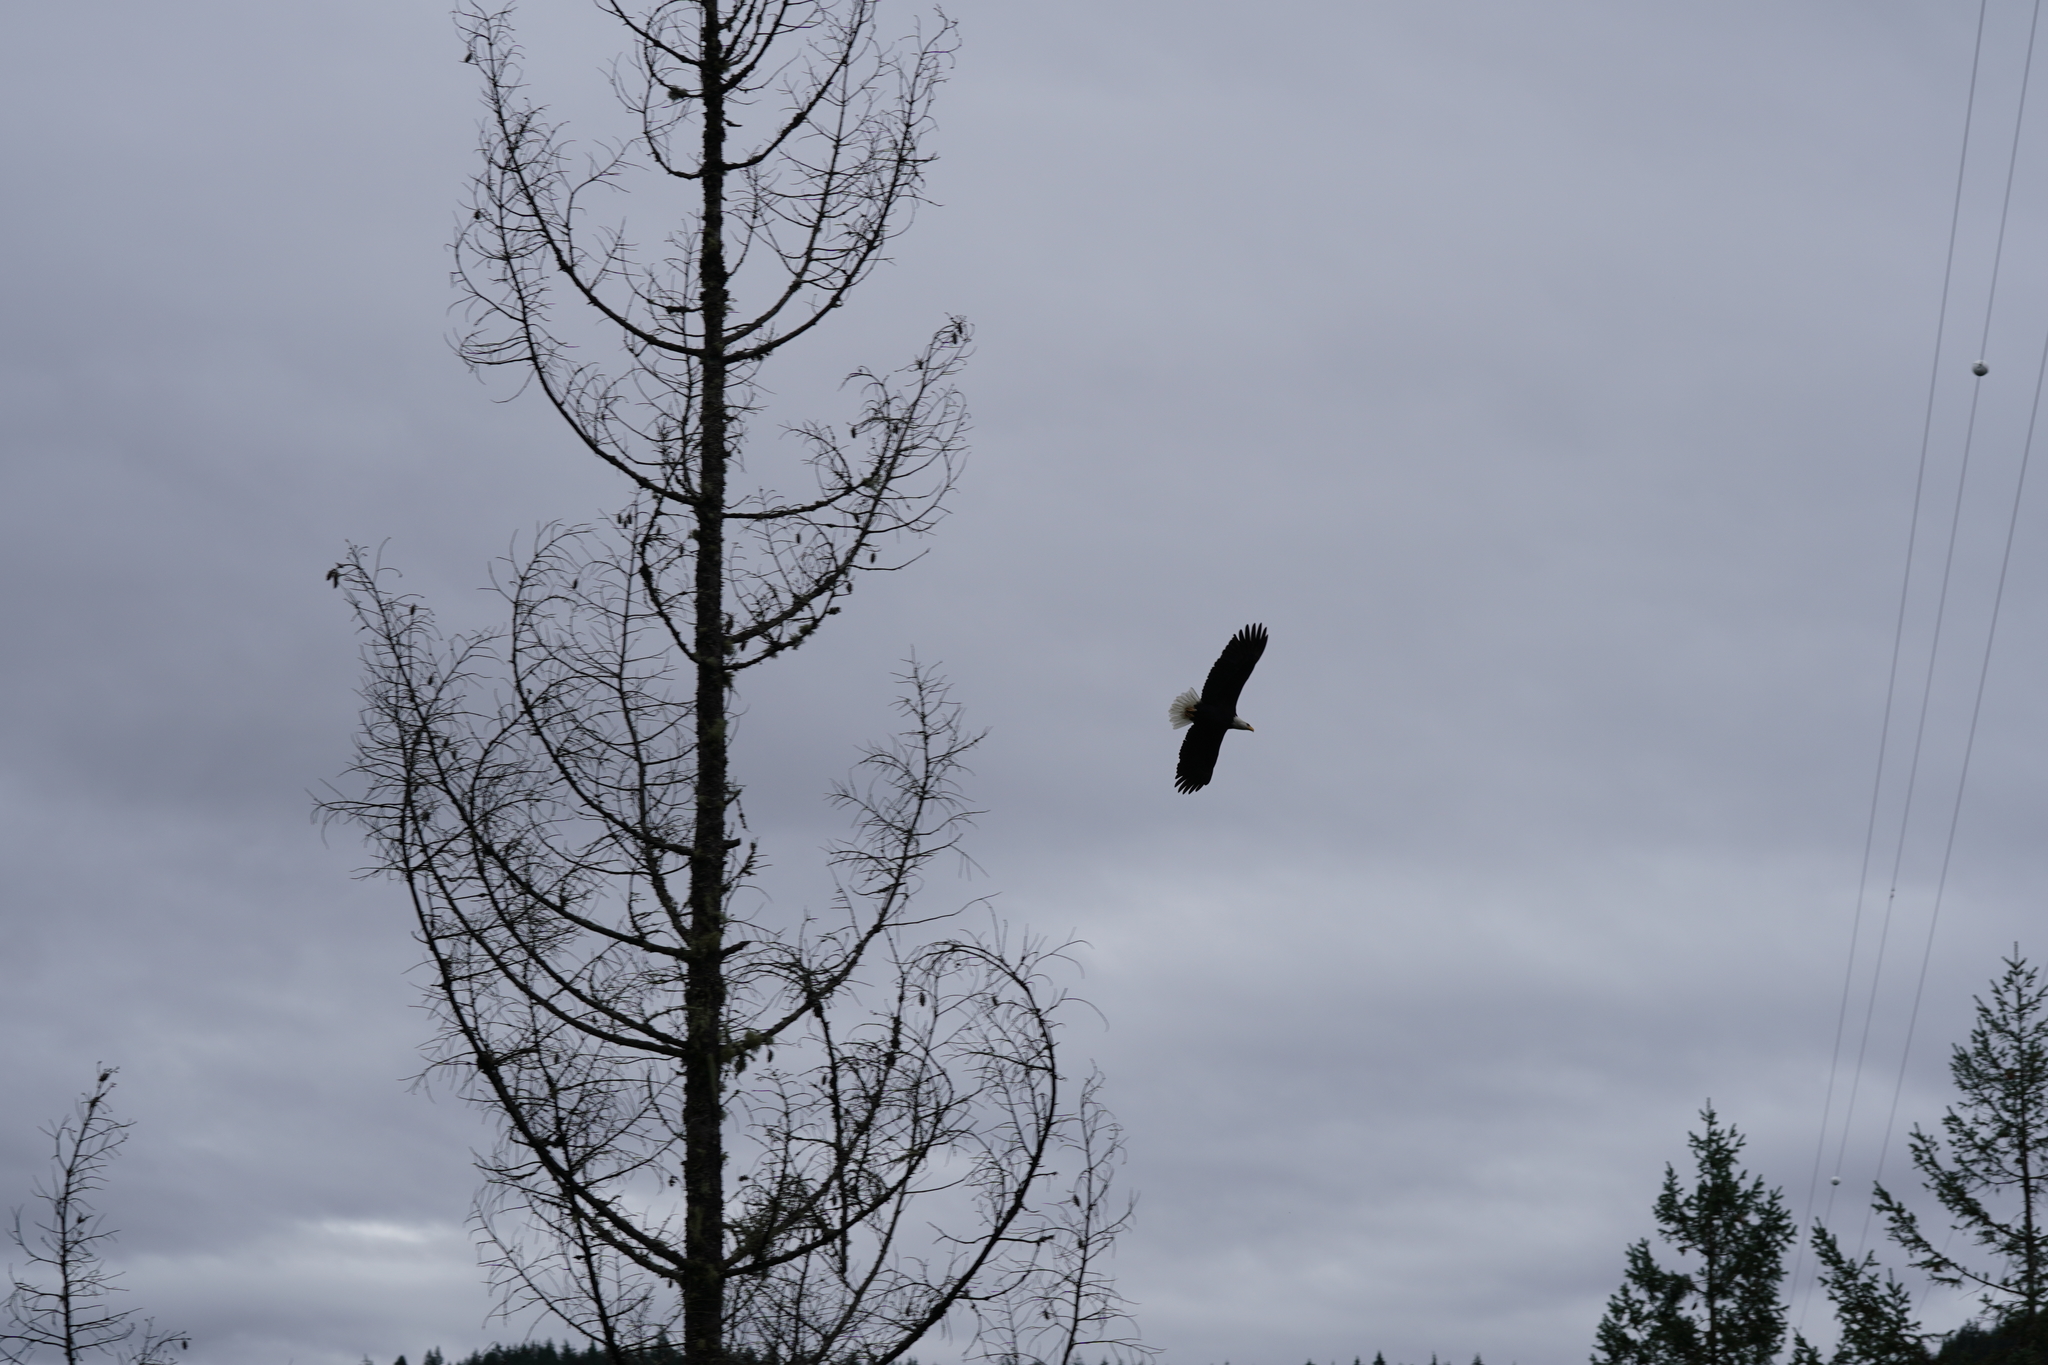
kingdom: Animalia
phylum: Chordata
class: Aves
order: Accipitriformes
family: Accipitridae
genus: Haliaeetus
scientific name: Haliaeetus leucocephalus
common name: Bald eagle
